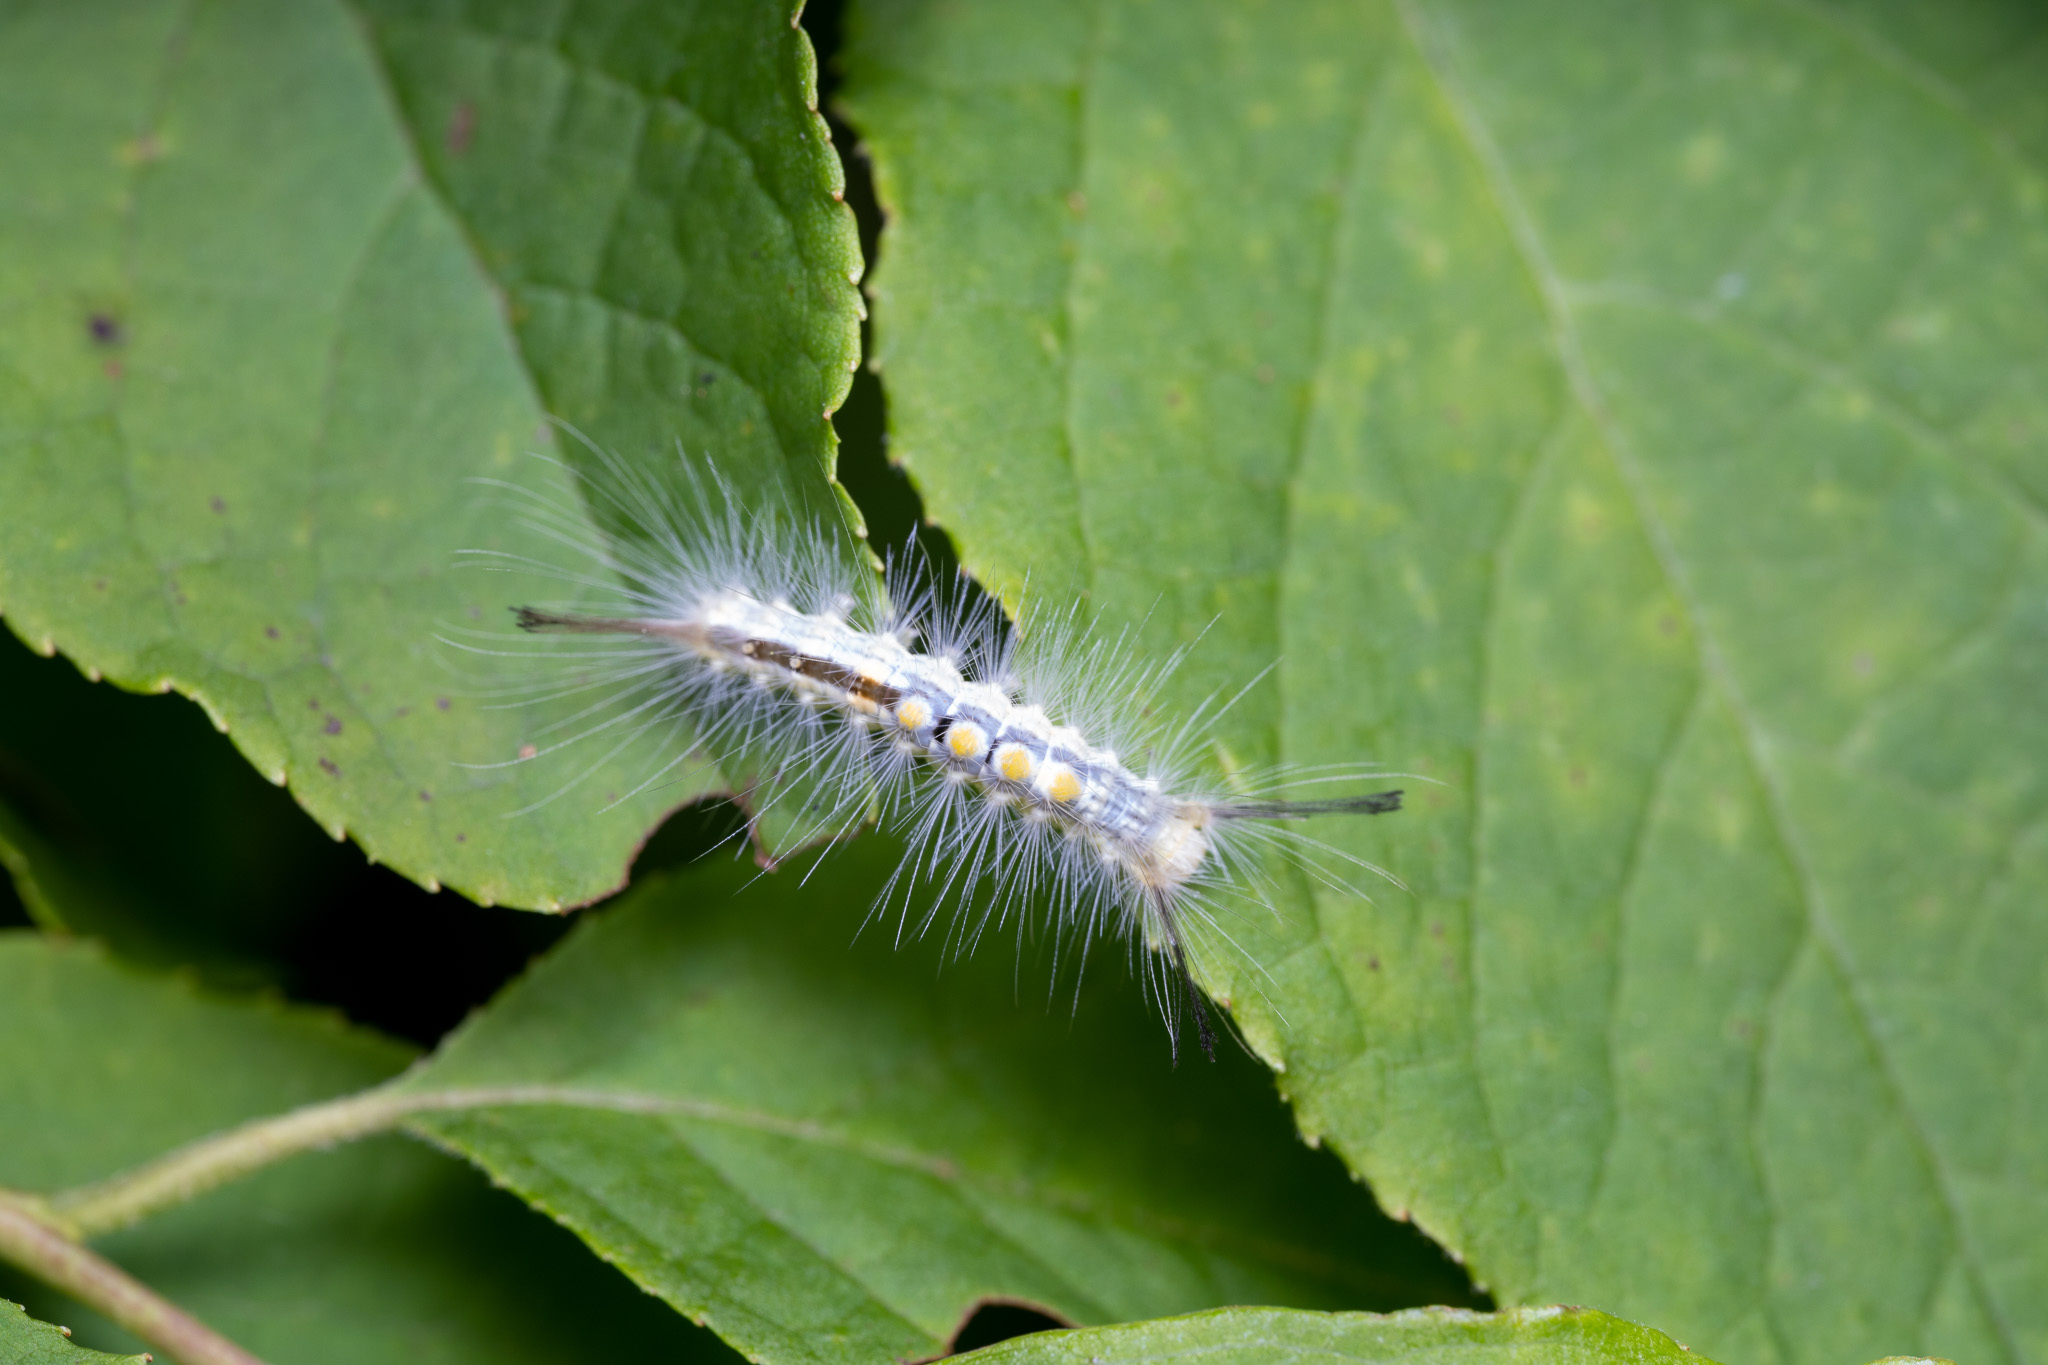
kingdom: Animalia
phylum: Arthropoda
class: Insecta
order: Lepidoptera
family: Erebidae
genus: Orgyia
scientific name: Orgyia definita
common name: Definite tussock moth
